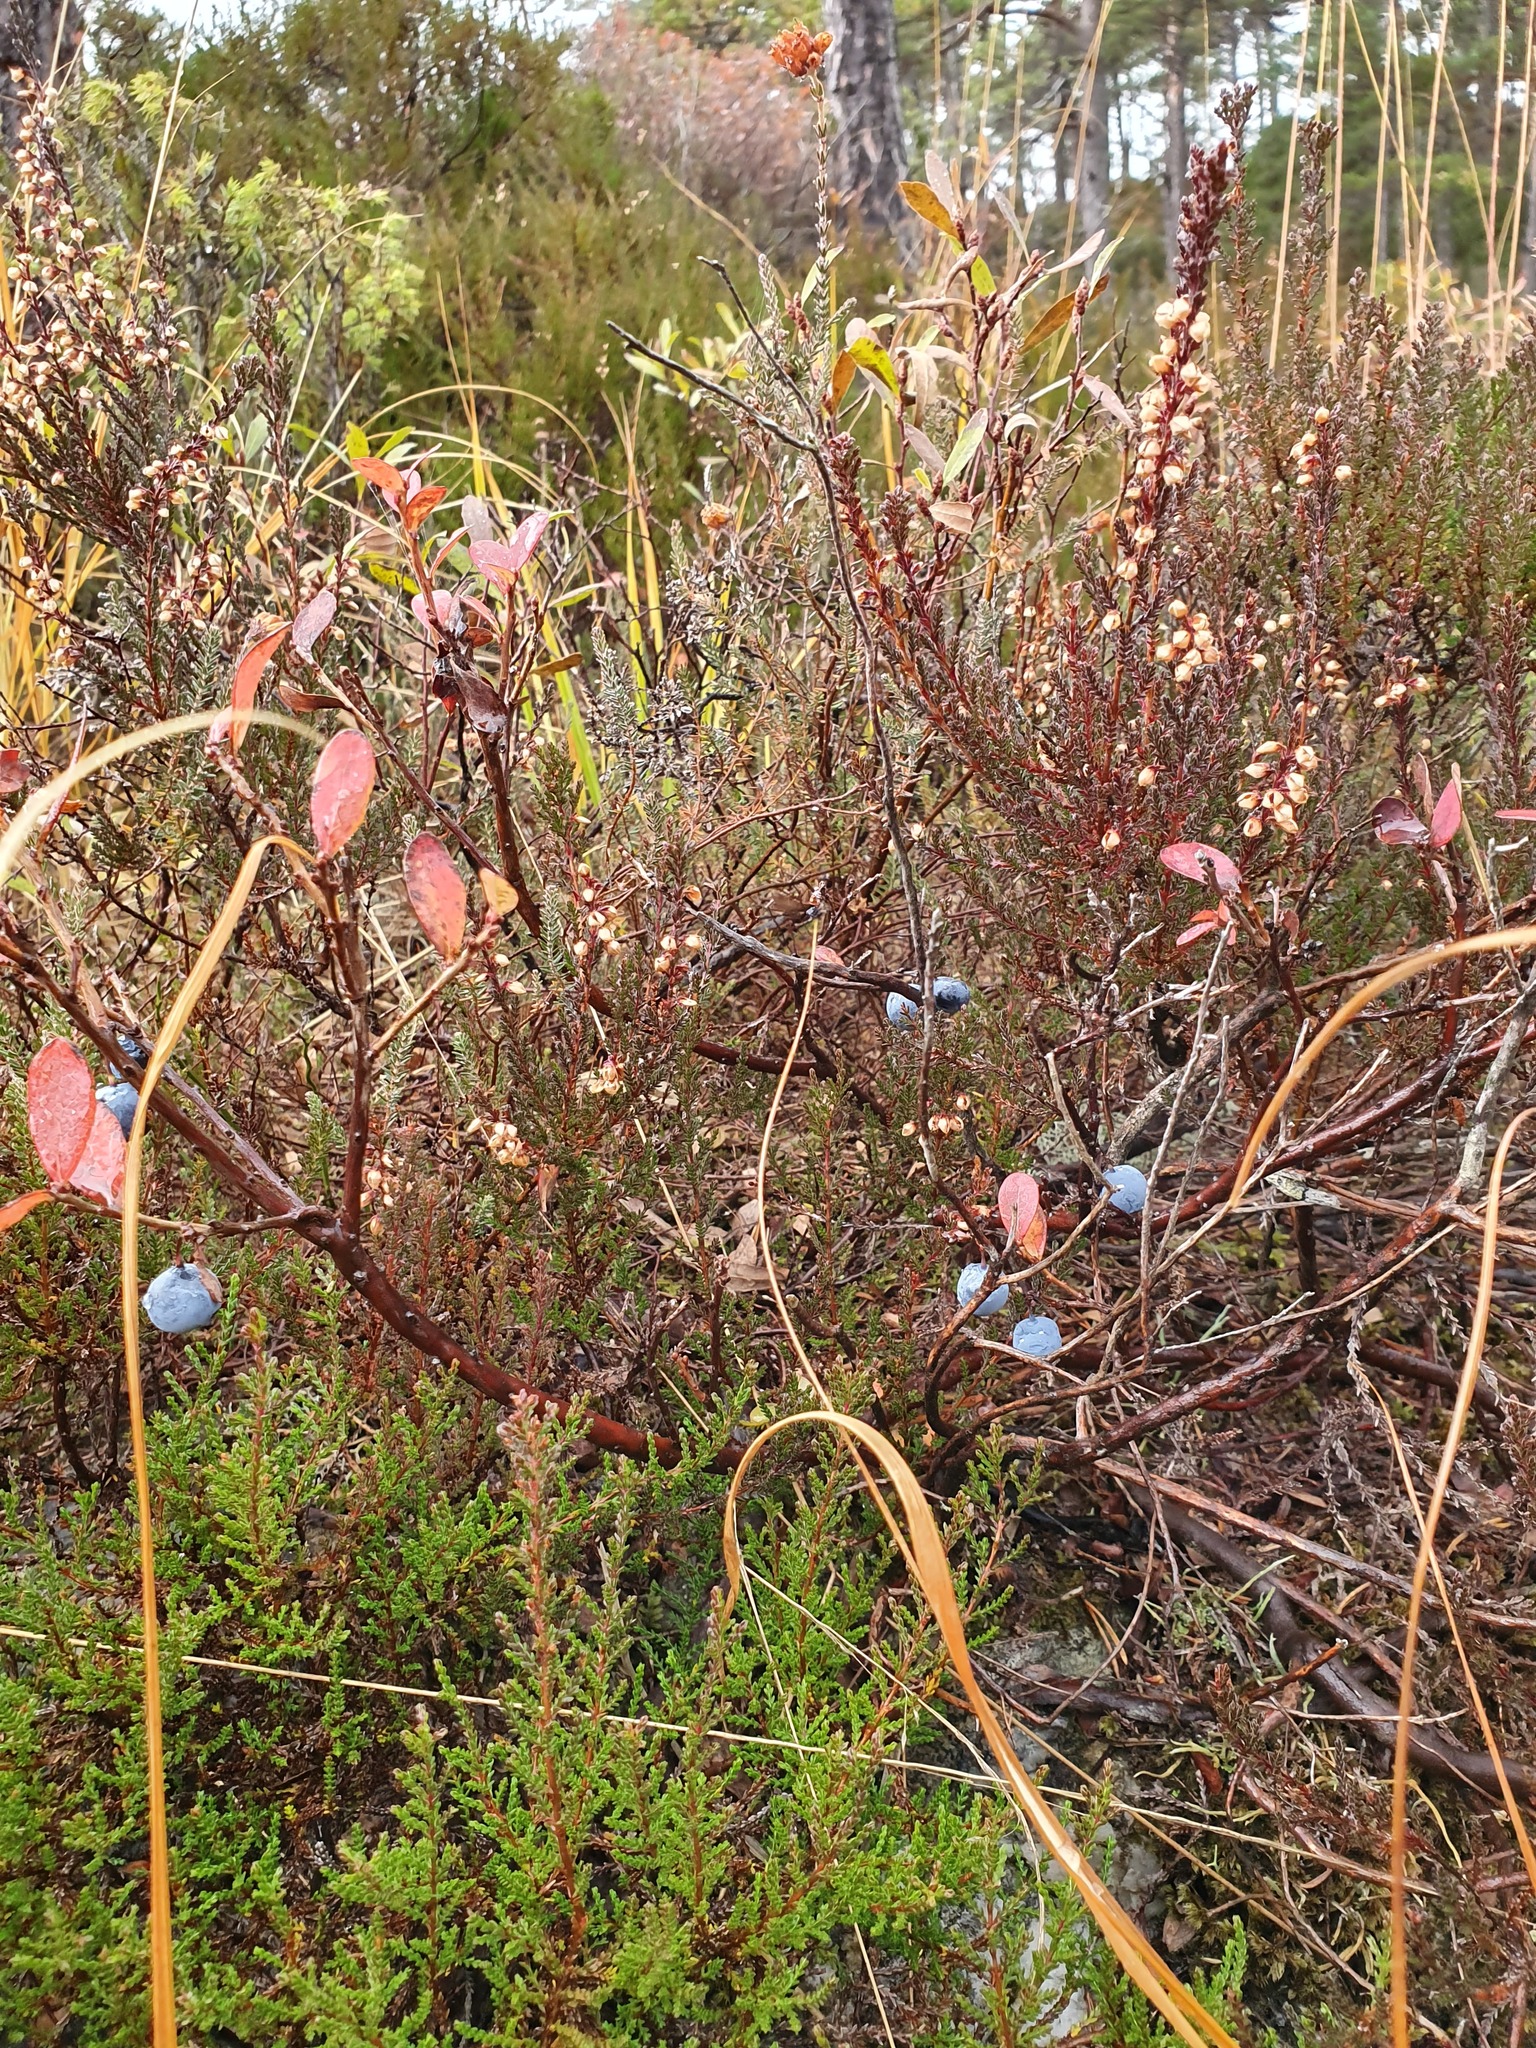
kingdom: Plantae
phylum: Tracheophyta
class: Magnoliopsida
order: Ericales
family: Ericaceae
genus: Calluna
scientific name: Calluna vulgaris
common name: Heather
